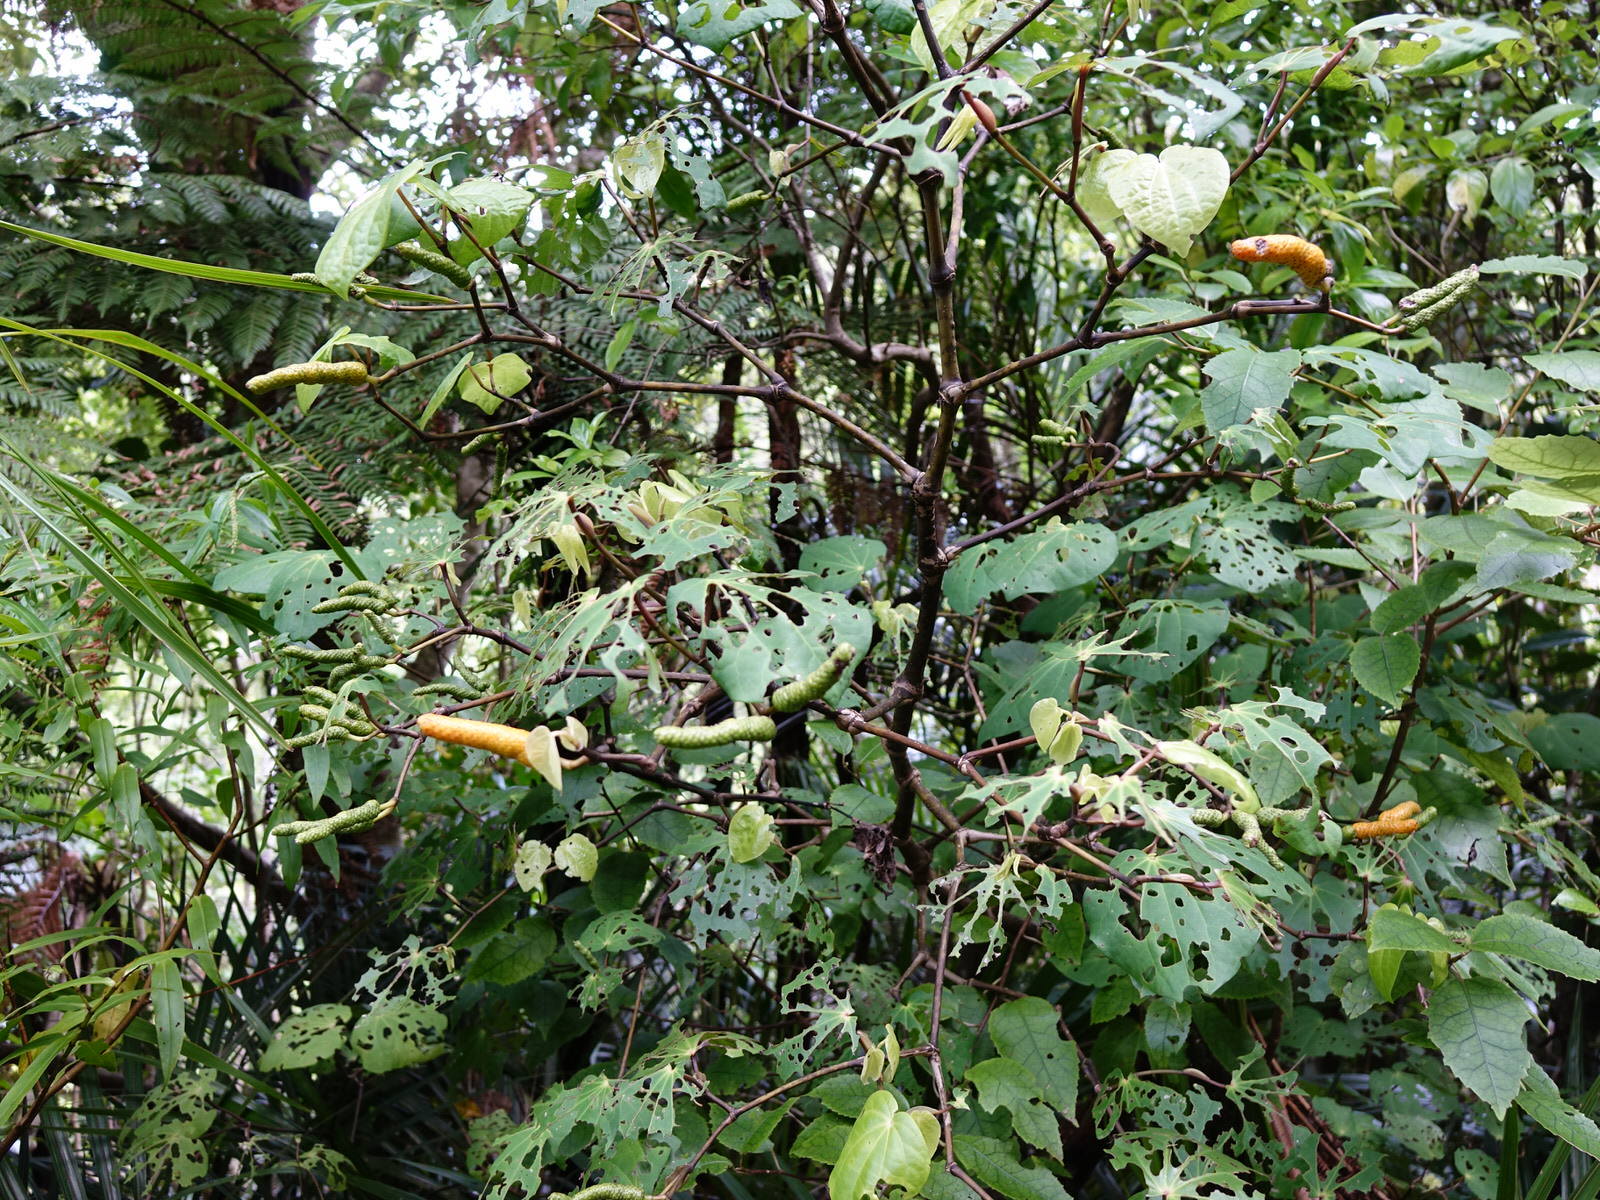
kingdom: Plantae
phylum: Tracheophyta
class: Magnoliopsida
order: Piperales
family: Piperaceae
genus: Macropiper
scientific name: Macropiper excelsum
